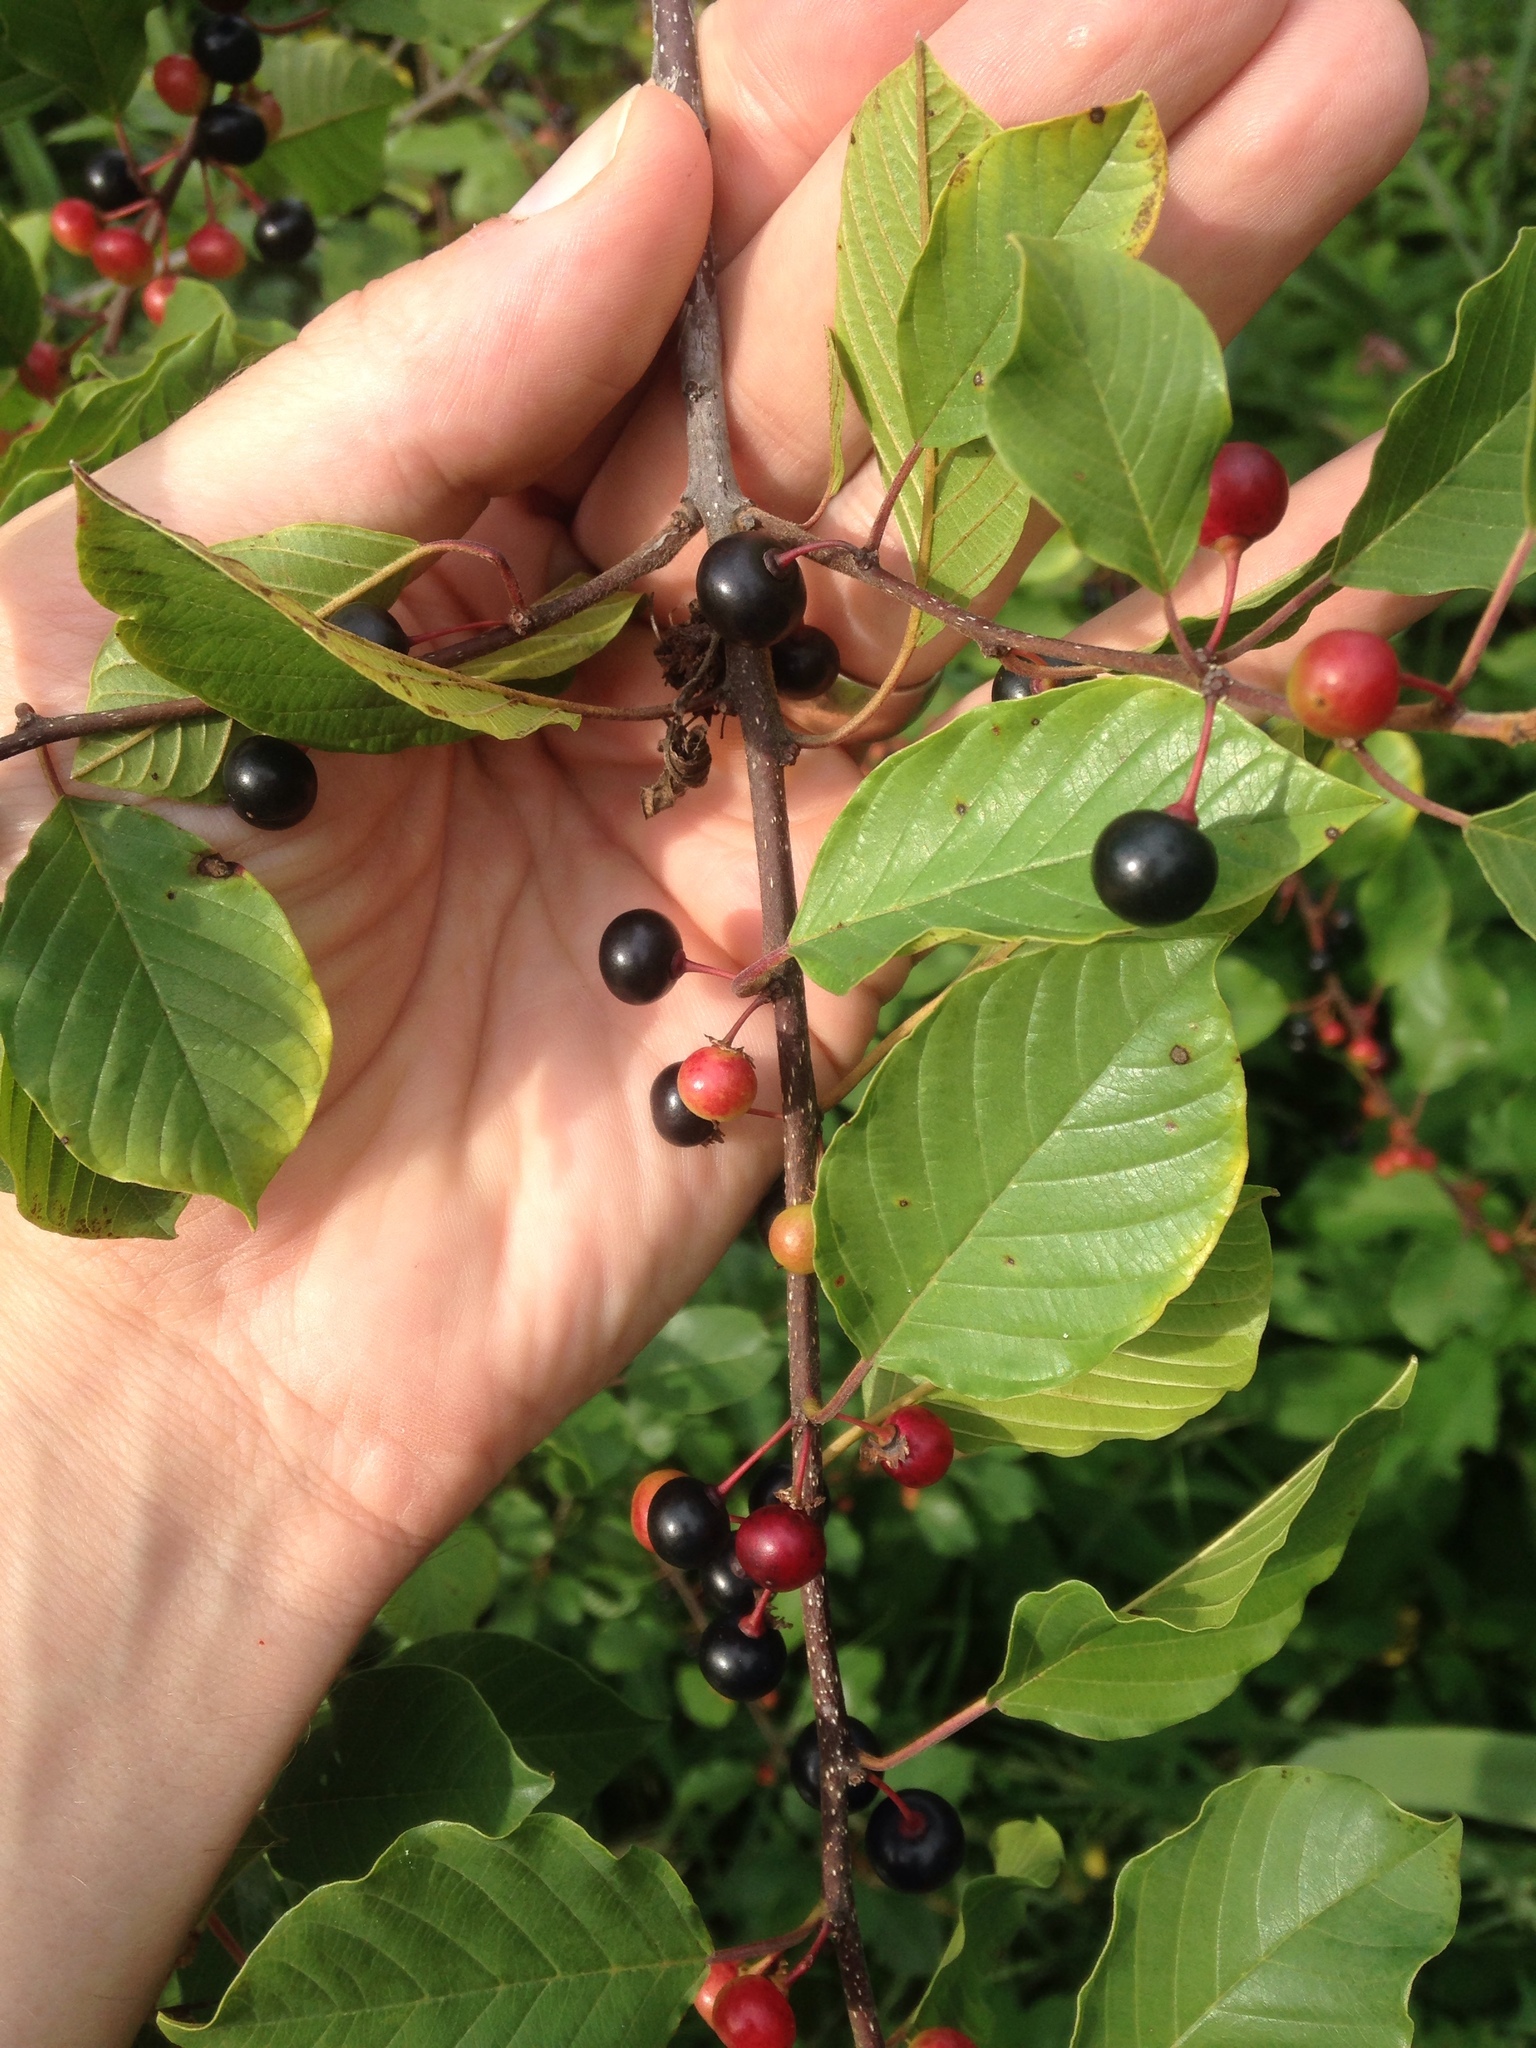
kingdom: Plantae
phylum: Tracheophyta
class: Magnoliopsida
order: Rosales
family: Rhamnaceae
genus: Frangula
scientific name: Frangula alnus
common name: Alder buckthorn
